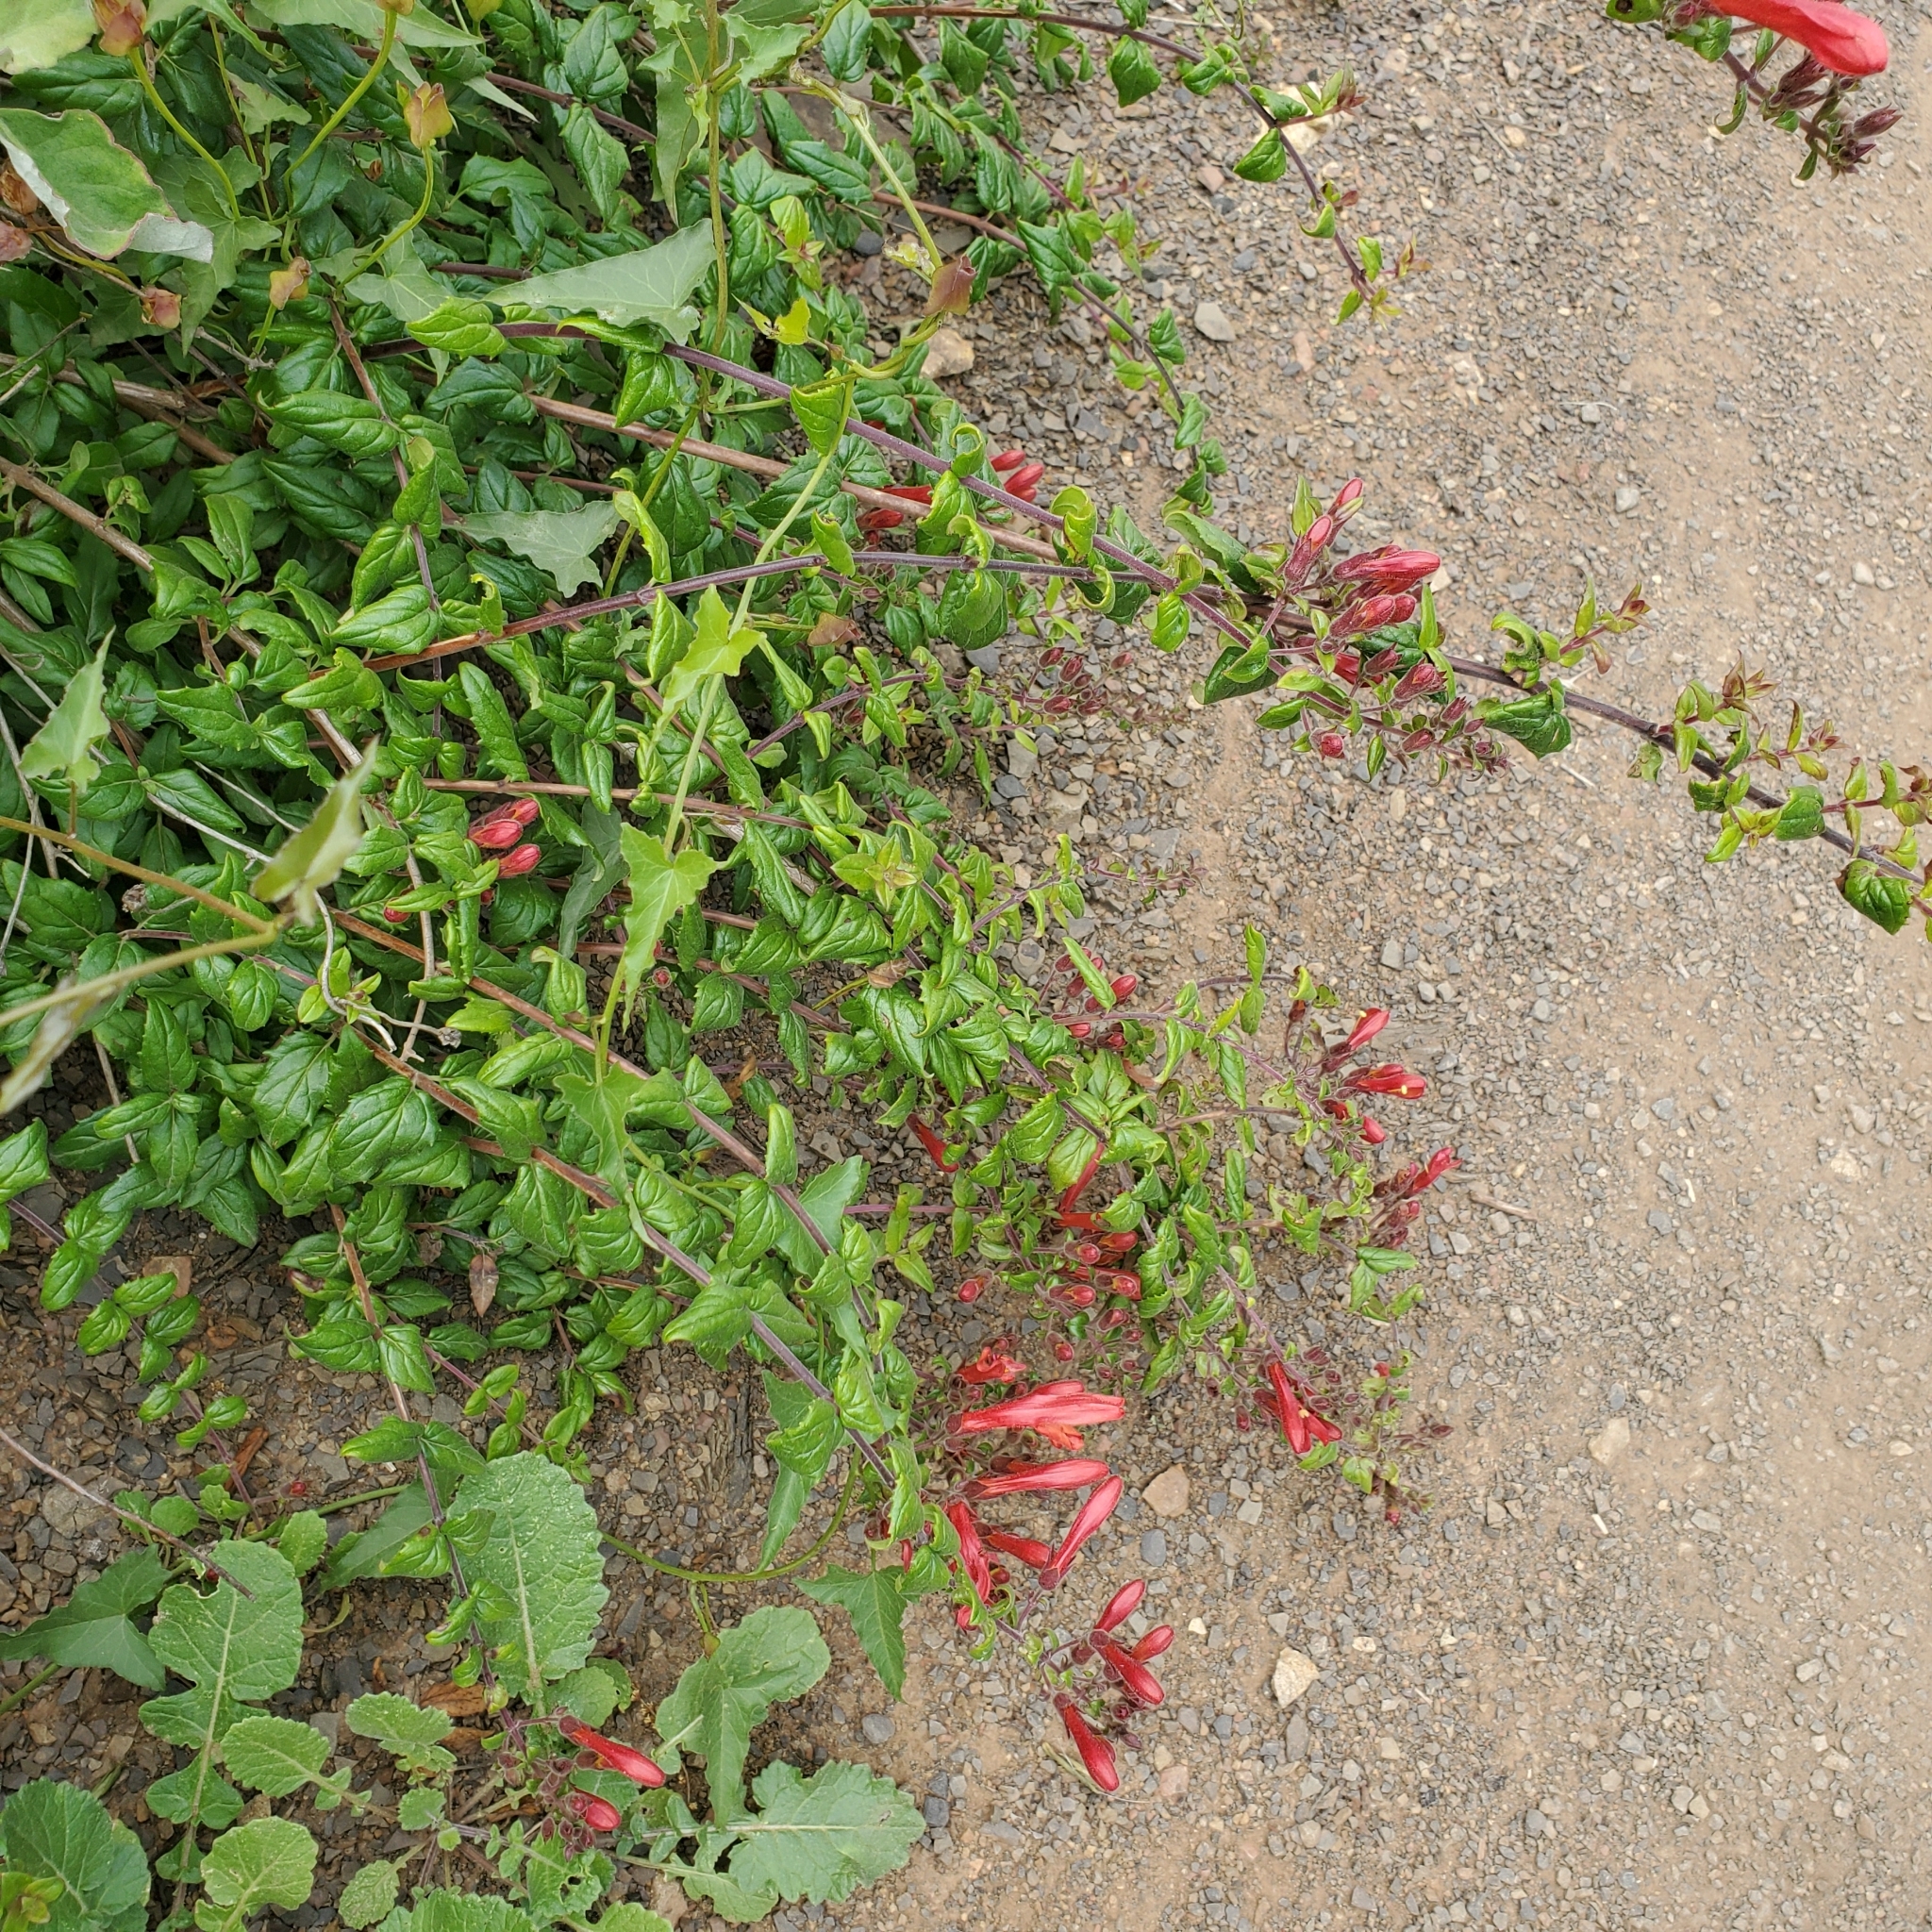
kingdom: Plantae
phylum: Tracheophyta
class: Magnoliopsida
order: Lamiales
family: Plantaginaceae
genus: Keckiella
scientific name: Keckiella cordifolia
